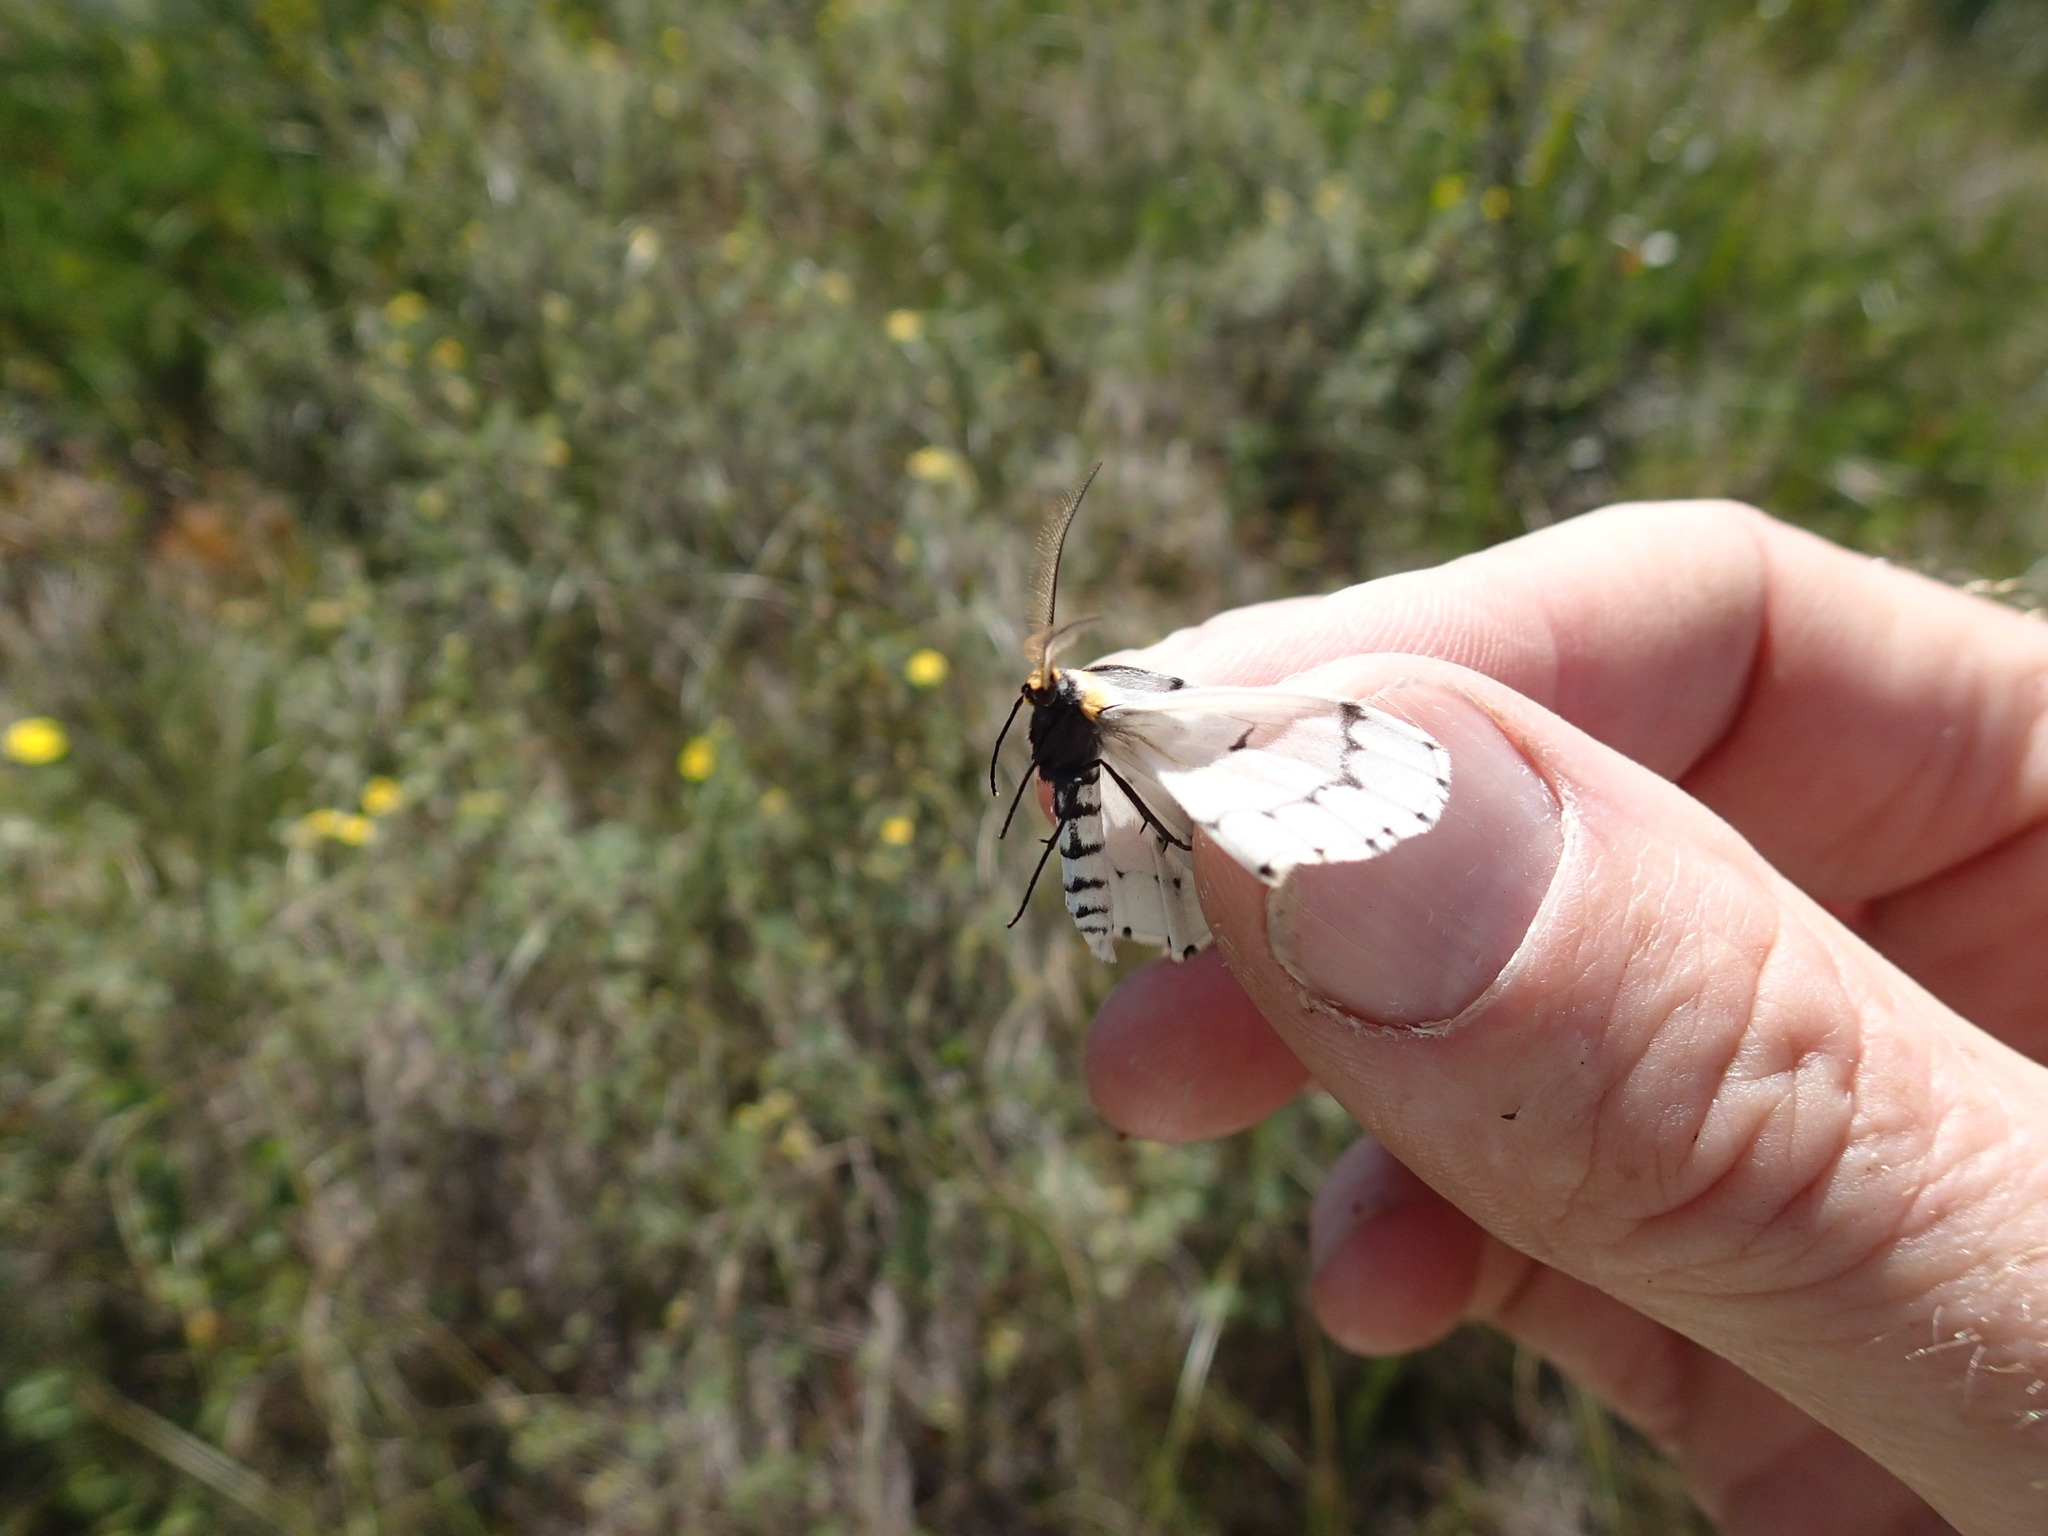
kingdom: Animalia
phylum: Arthropoda
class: Insecta
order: Lepidoptera
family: Geometridae
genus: Cingilia
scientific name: Cingilia catenaria
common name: Chain-dotted geometer
